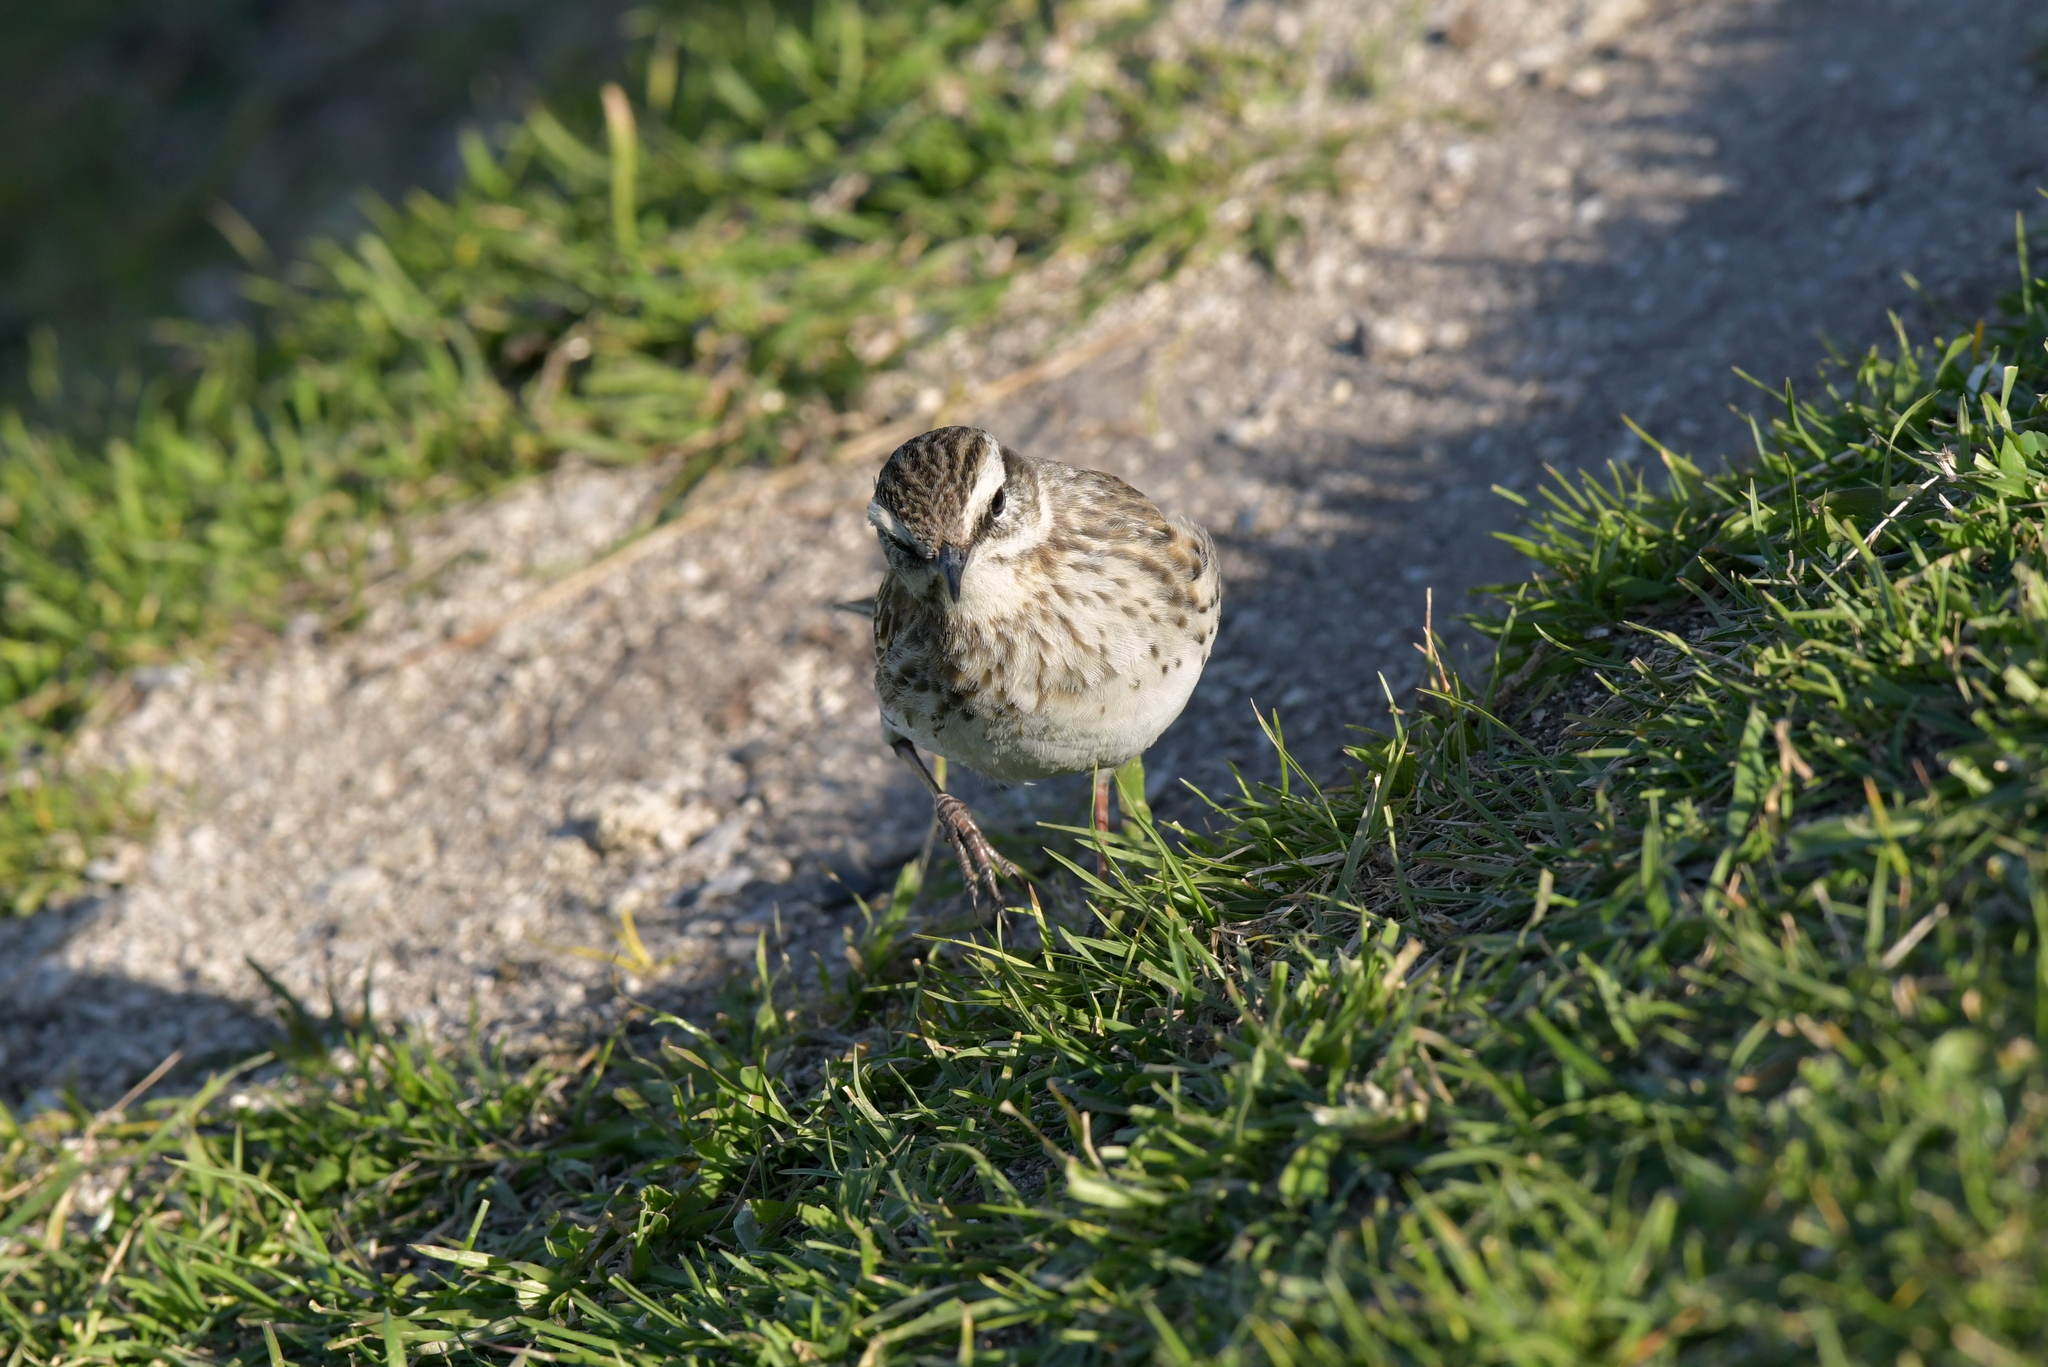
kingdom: Animalia
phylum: Chordata
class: Aves
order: Passeriformes
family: Motacillidae
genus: Anthus
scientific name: Anthus novaeseelandiae
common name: New zealand pipit
